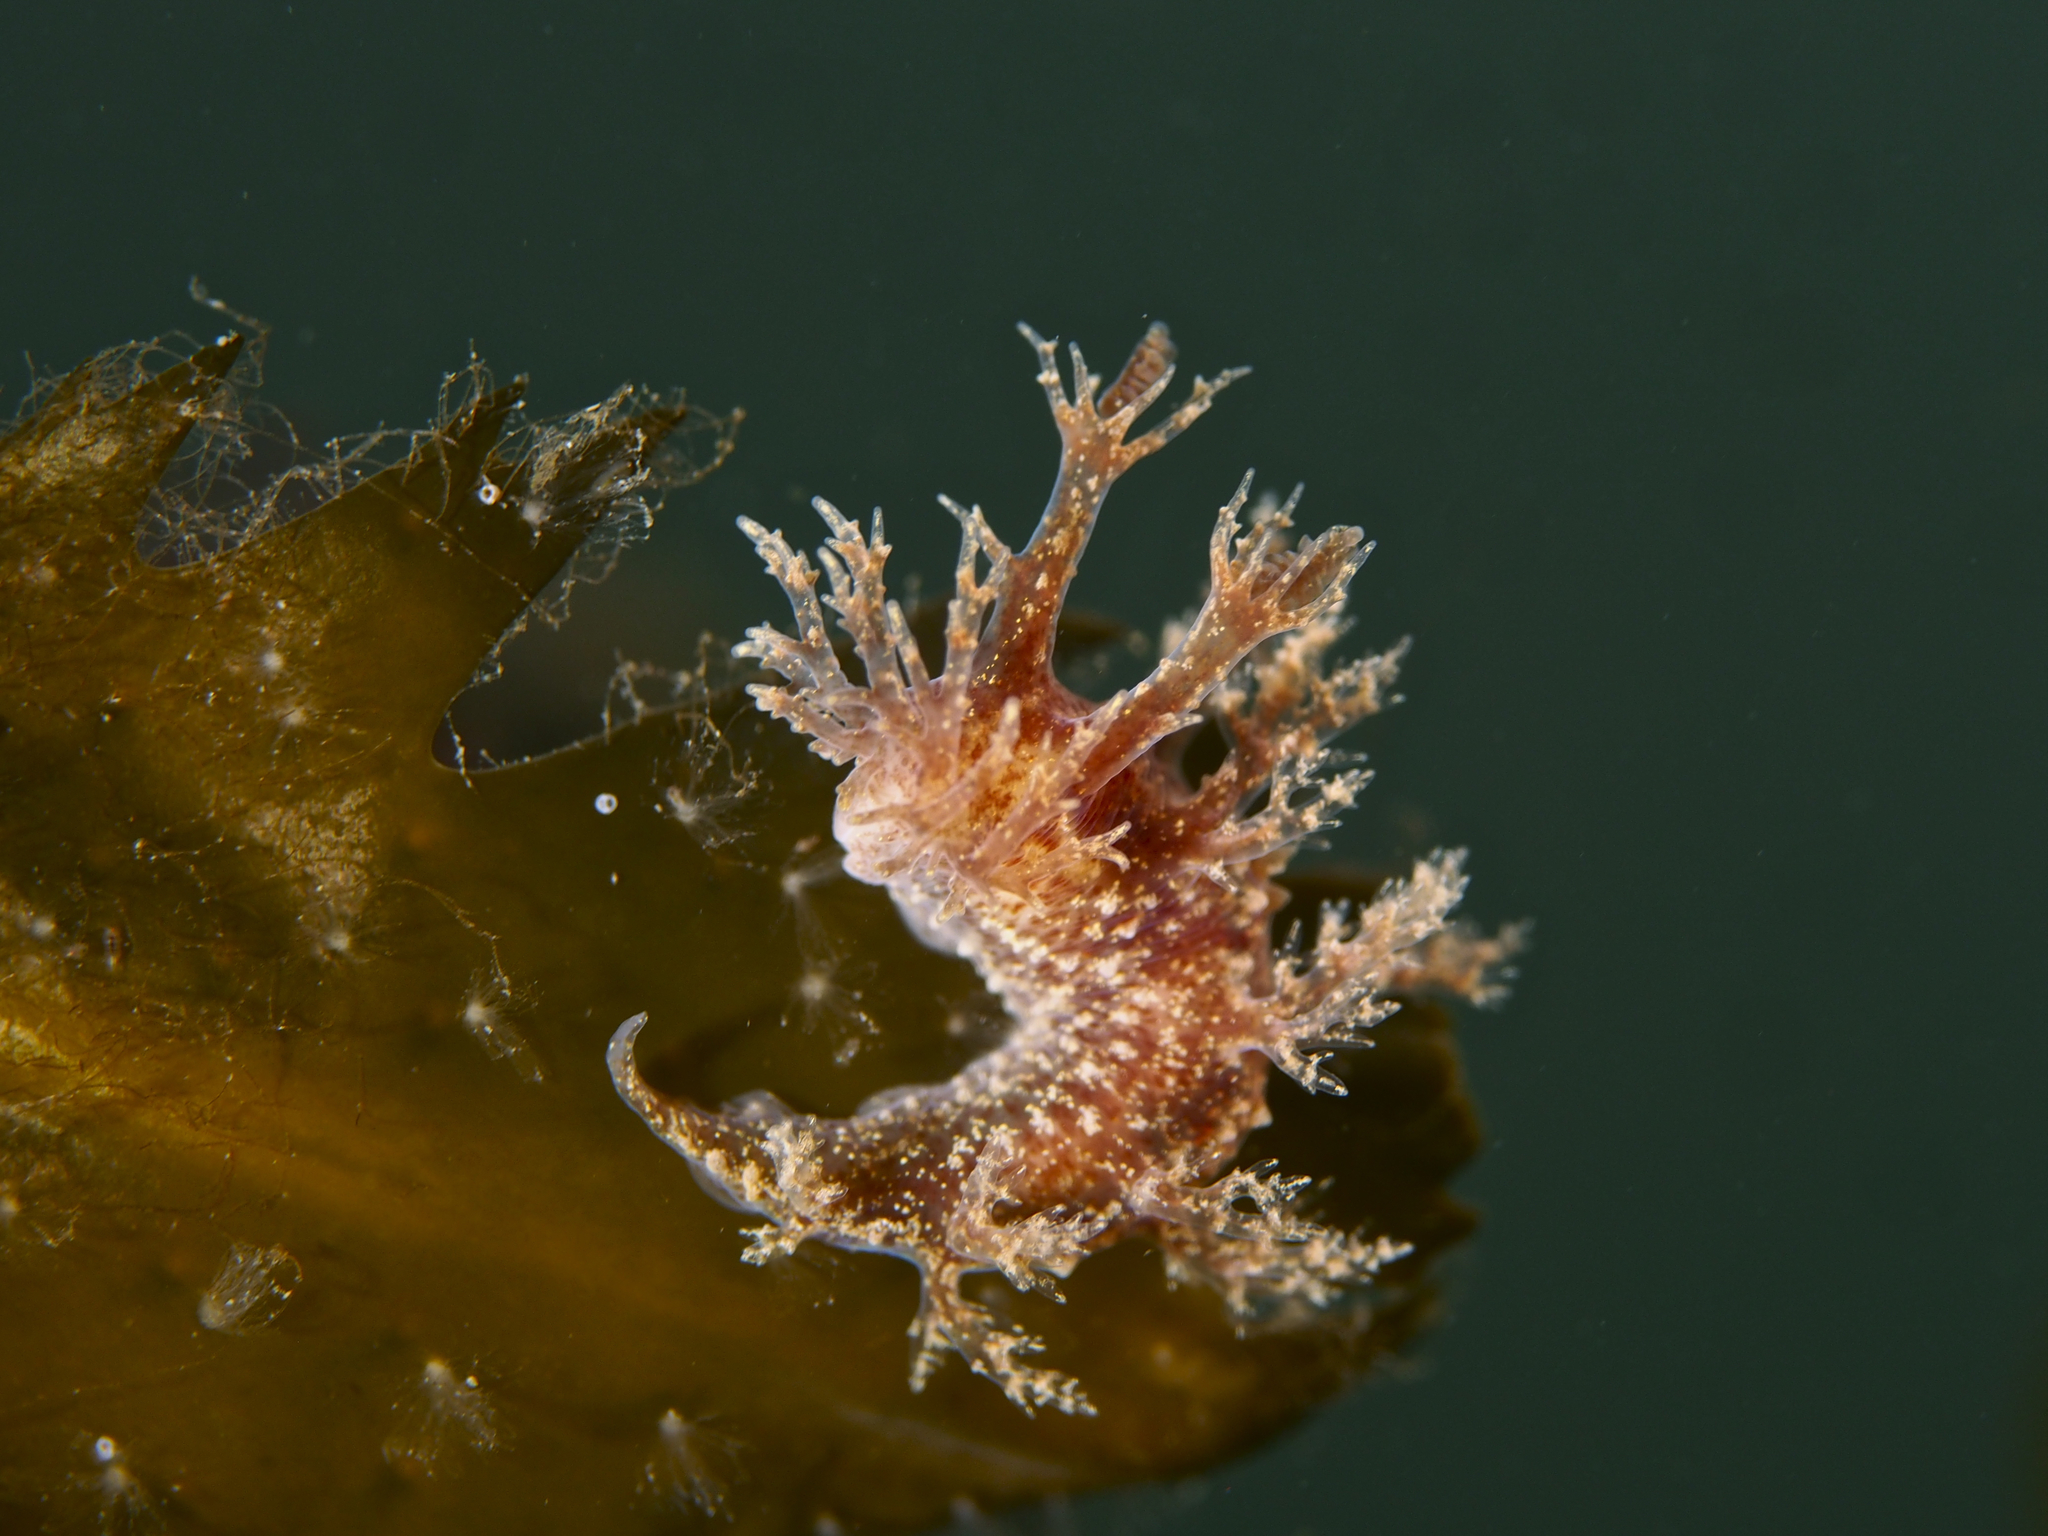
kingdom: Animalia
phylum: Mollusca
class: Gastropoda
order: Nudibranchia
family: Dendronotidae
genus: Dendronotus
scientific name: Dendronotus frondosus
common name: Bushy-backed nudibranch
